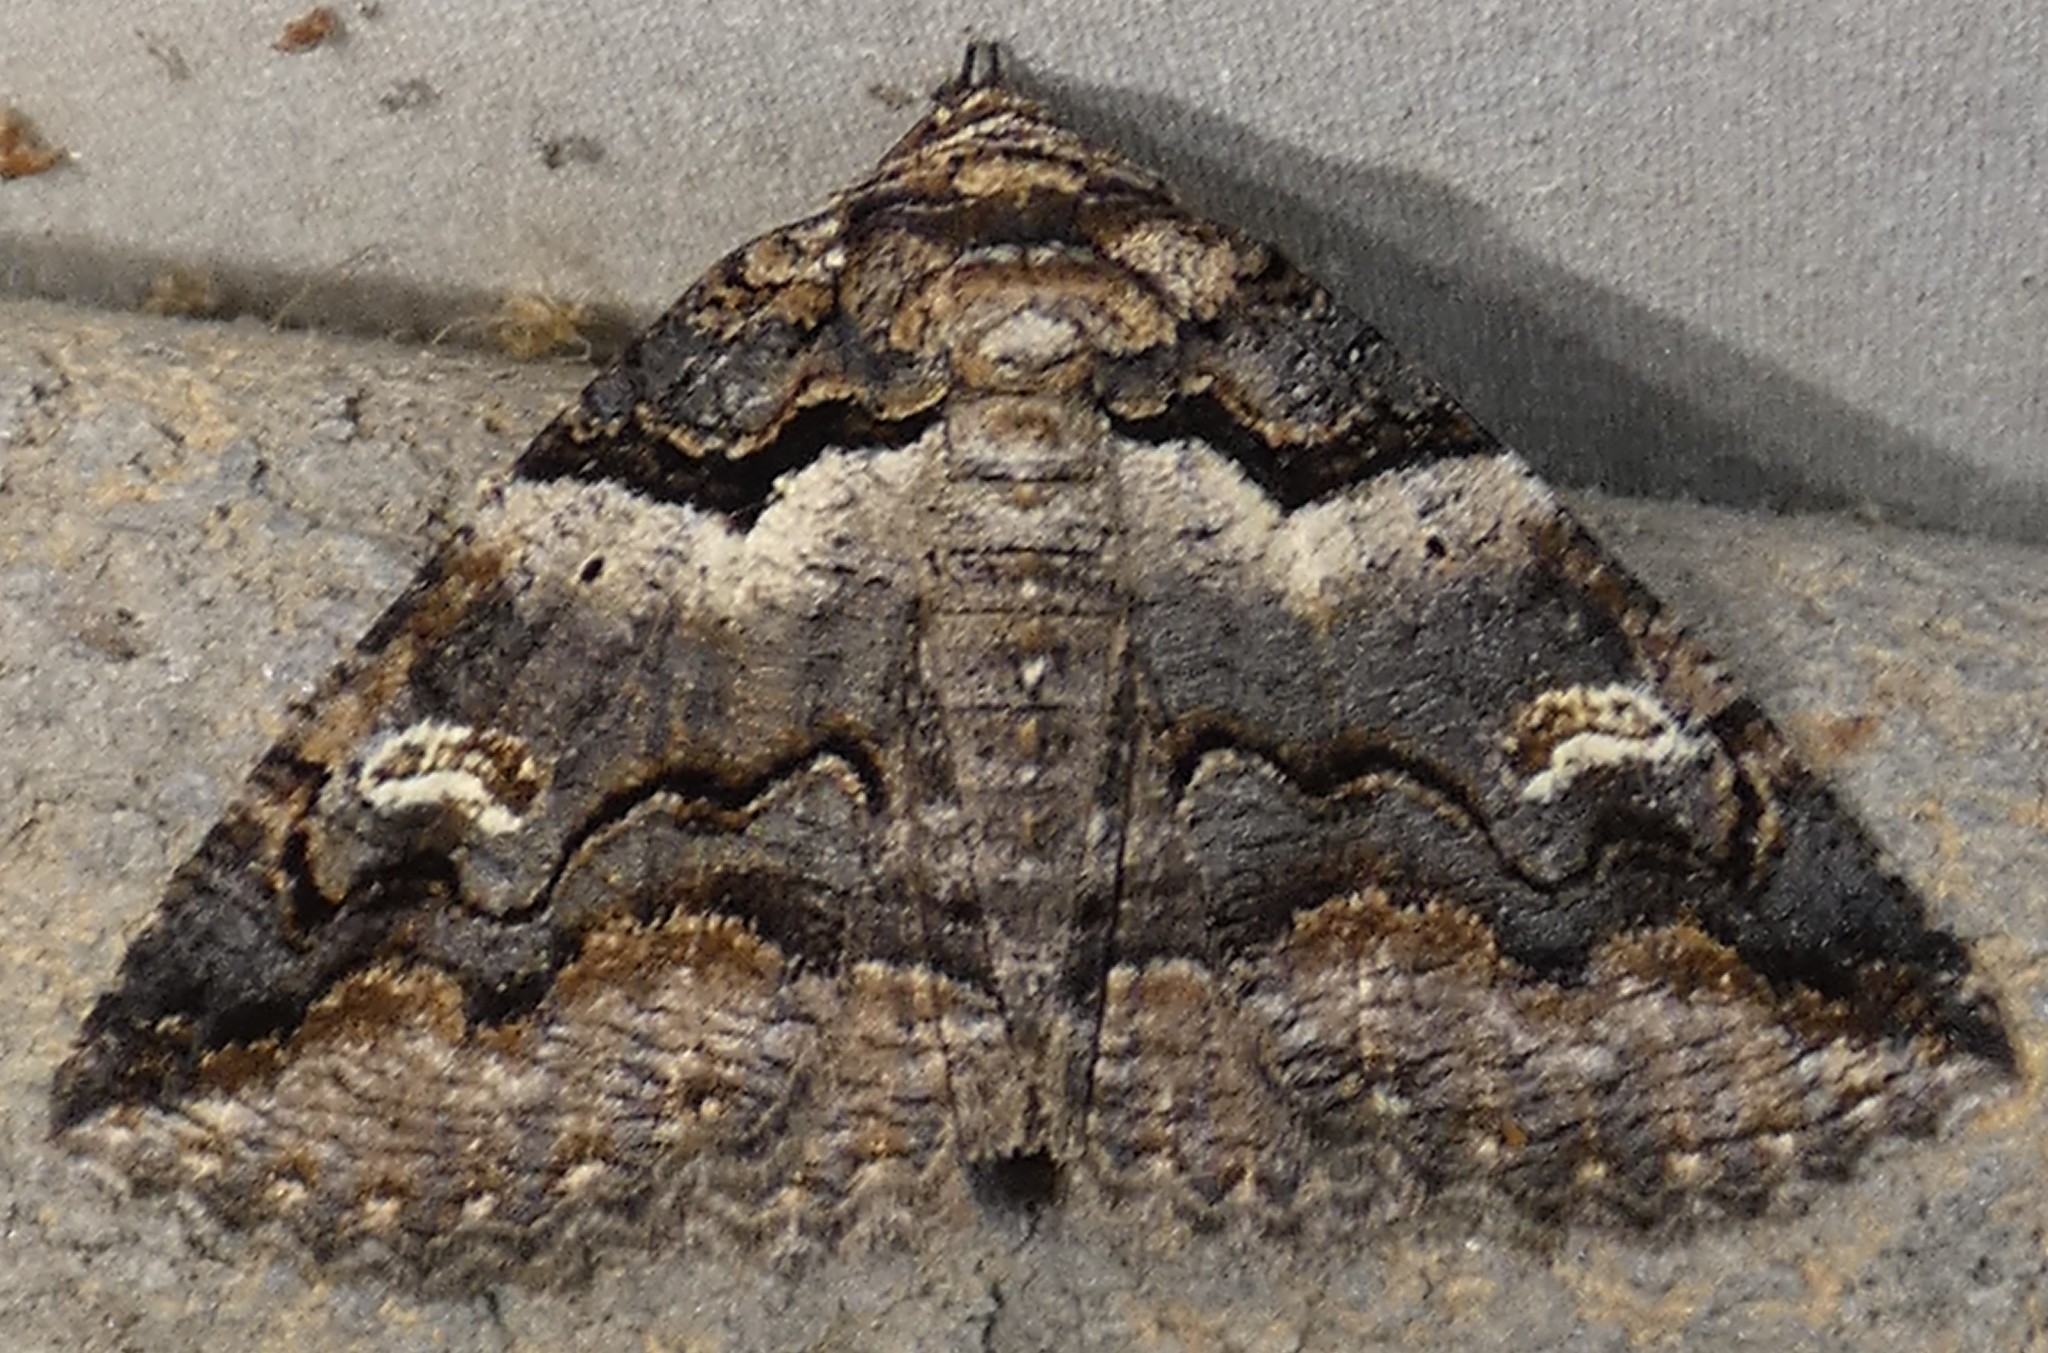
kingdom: Animalia
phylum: Arthropoda
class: Insecta
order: Lepidoptera
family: Erebidae
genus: Zale
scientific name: Zale intenta
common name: Intent zale moth
